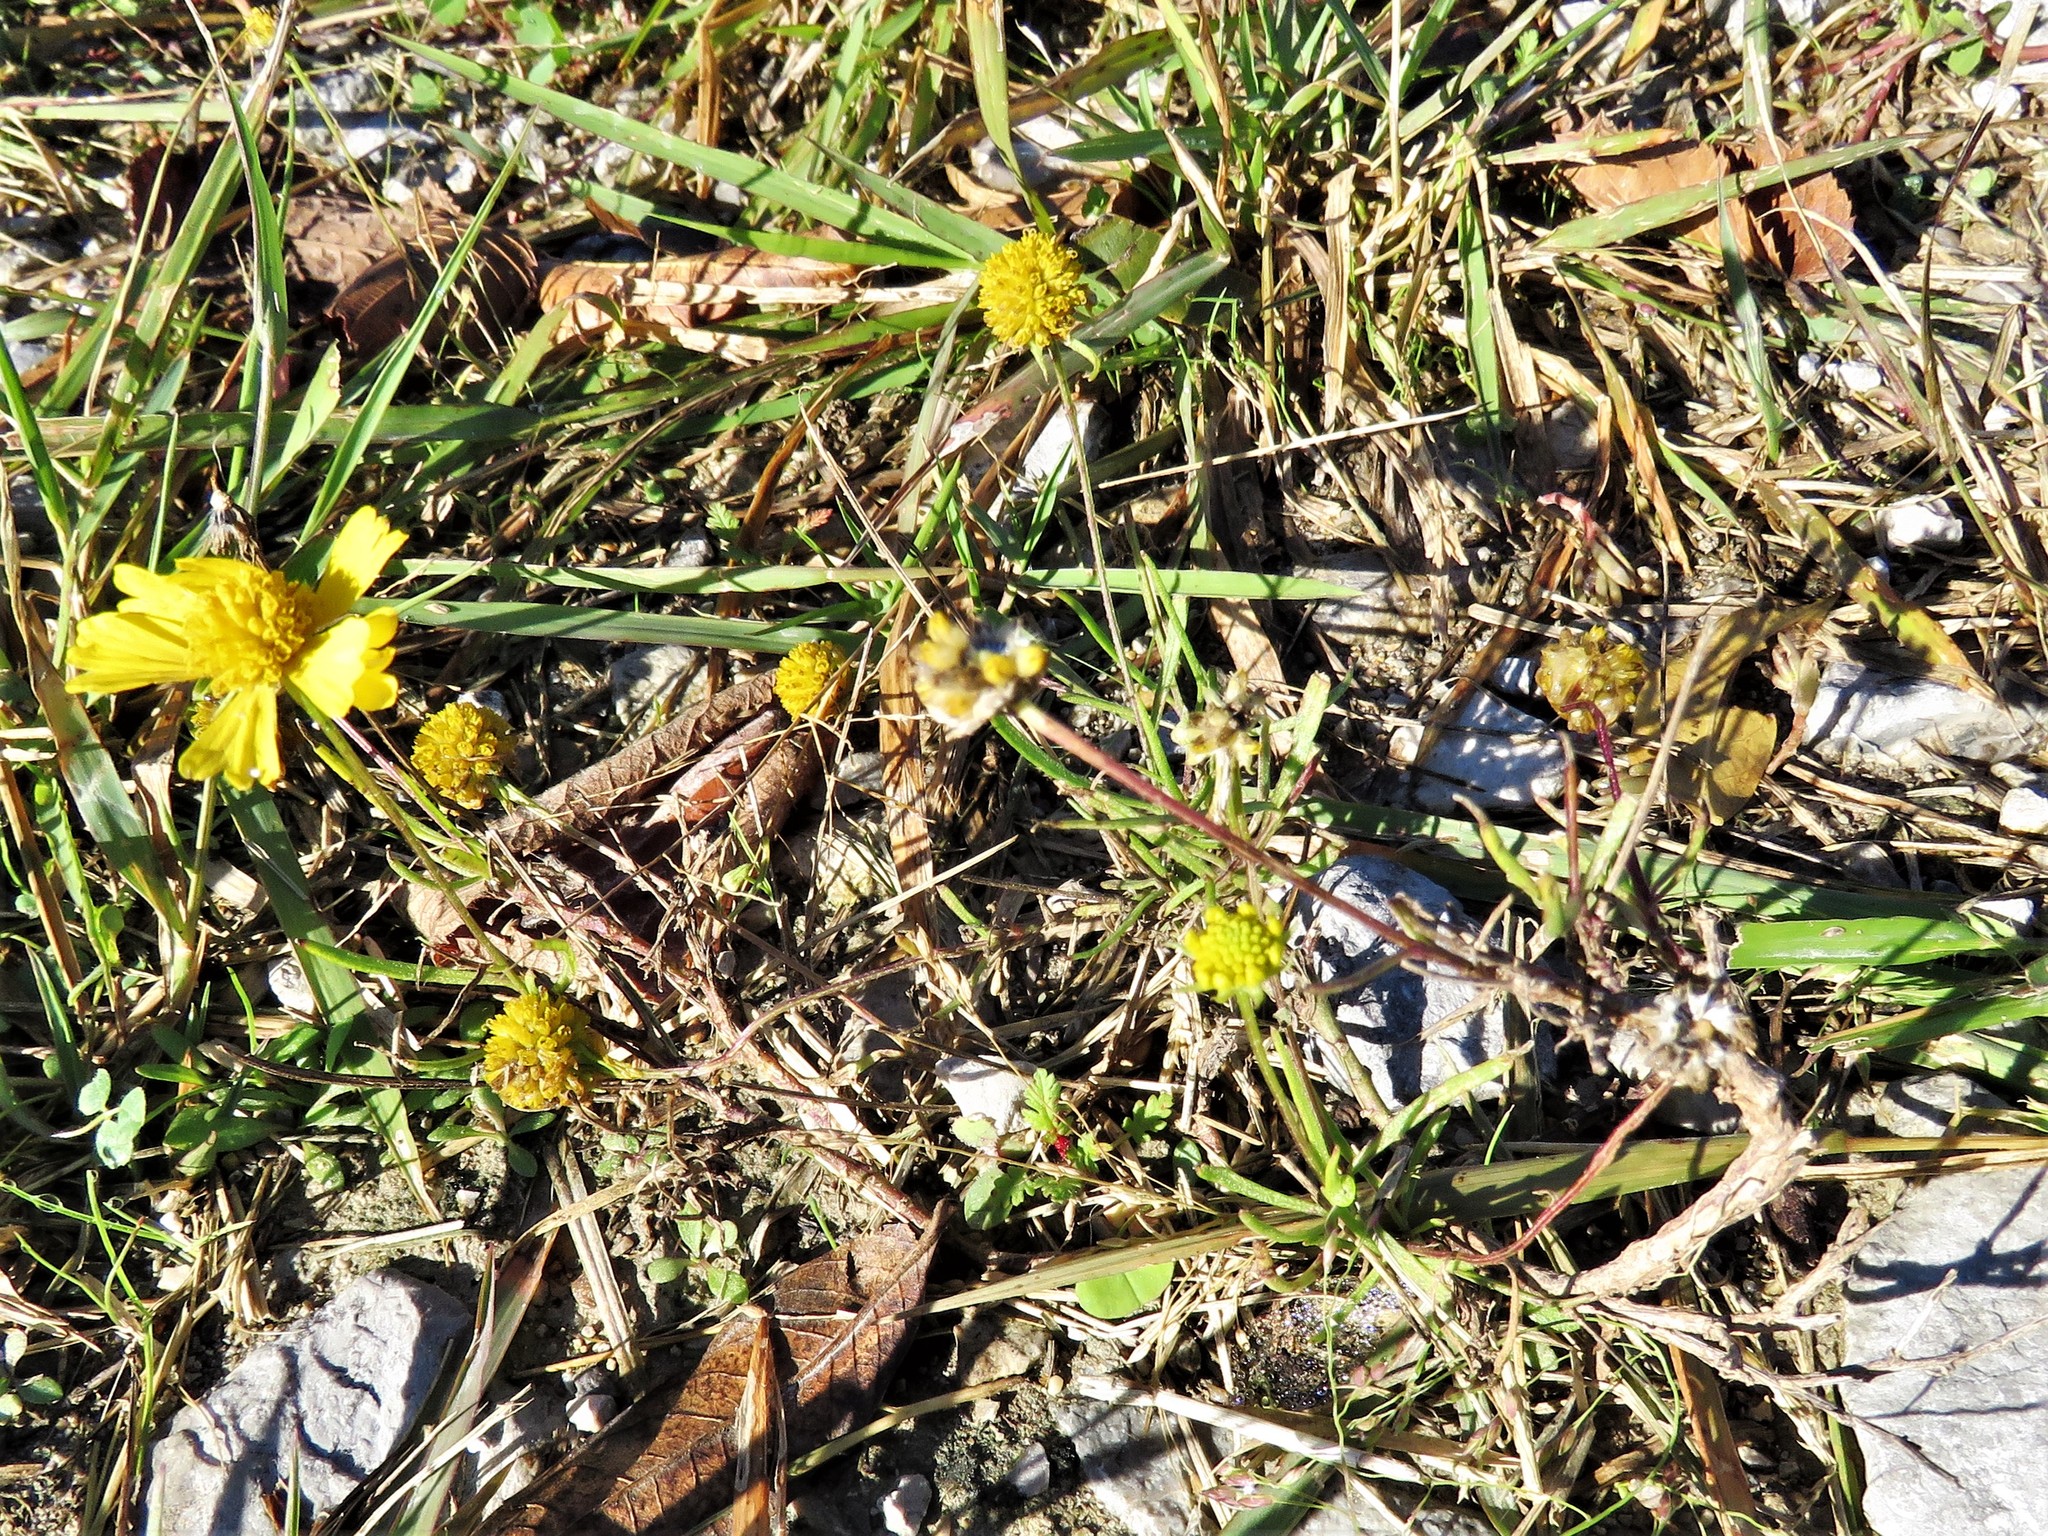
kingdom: Plantae
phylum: Tracheophyta
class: Magnoliopsida
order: Asterales
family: Asteraceae
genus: Helenium
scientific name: Helenium amarum
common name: Bitter sneezeweed
